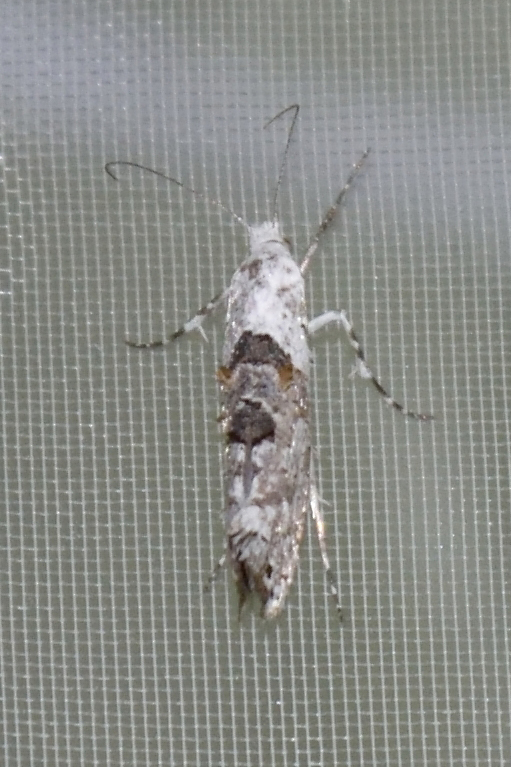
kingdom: Animalia
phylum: Arthropoda
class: Insecta
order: Lepidoptera
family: Plutellidae
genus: Ypsolophus
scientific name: Ypsolophus asperella
